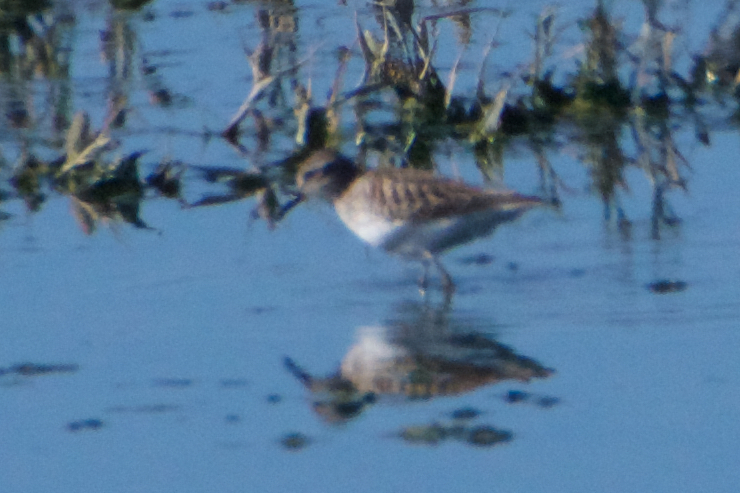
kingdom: Animalia
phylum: Chordata
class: Aves
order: Charadriiformes
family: Scolopacidae
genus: Calidris
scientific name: Calidris minutilla
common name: Least sandpiper
